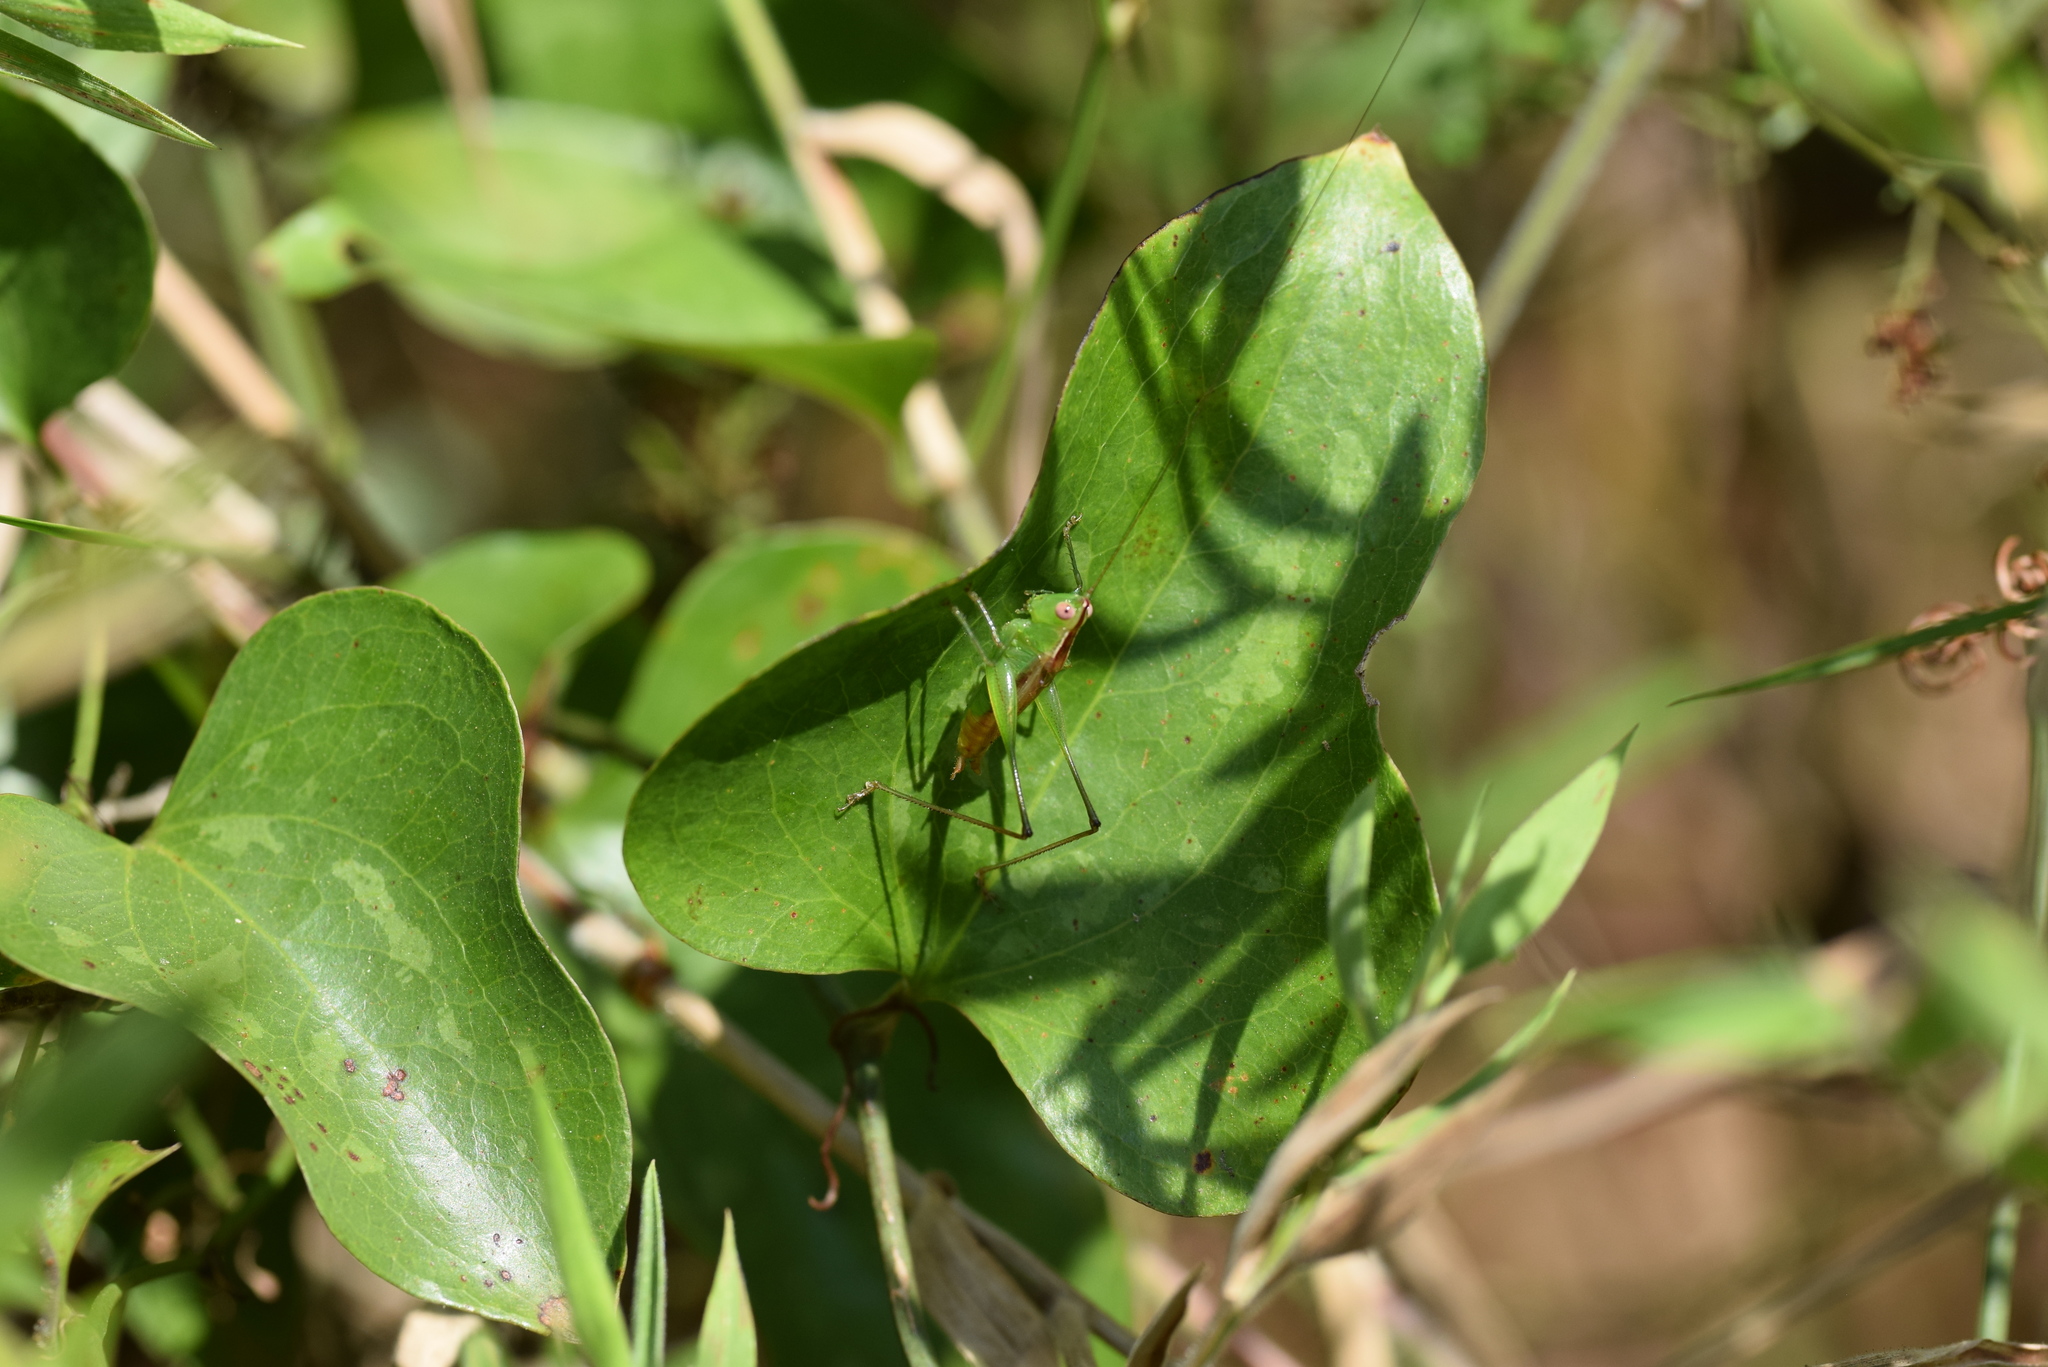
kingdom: Animalia
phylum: Arthropoda
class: Insecta
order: Orthoptera
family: Tettigoniidae
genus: Conocephalus
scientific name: Conocephalus brevipennis
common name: Short-winged meadow katydid
